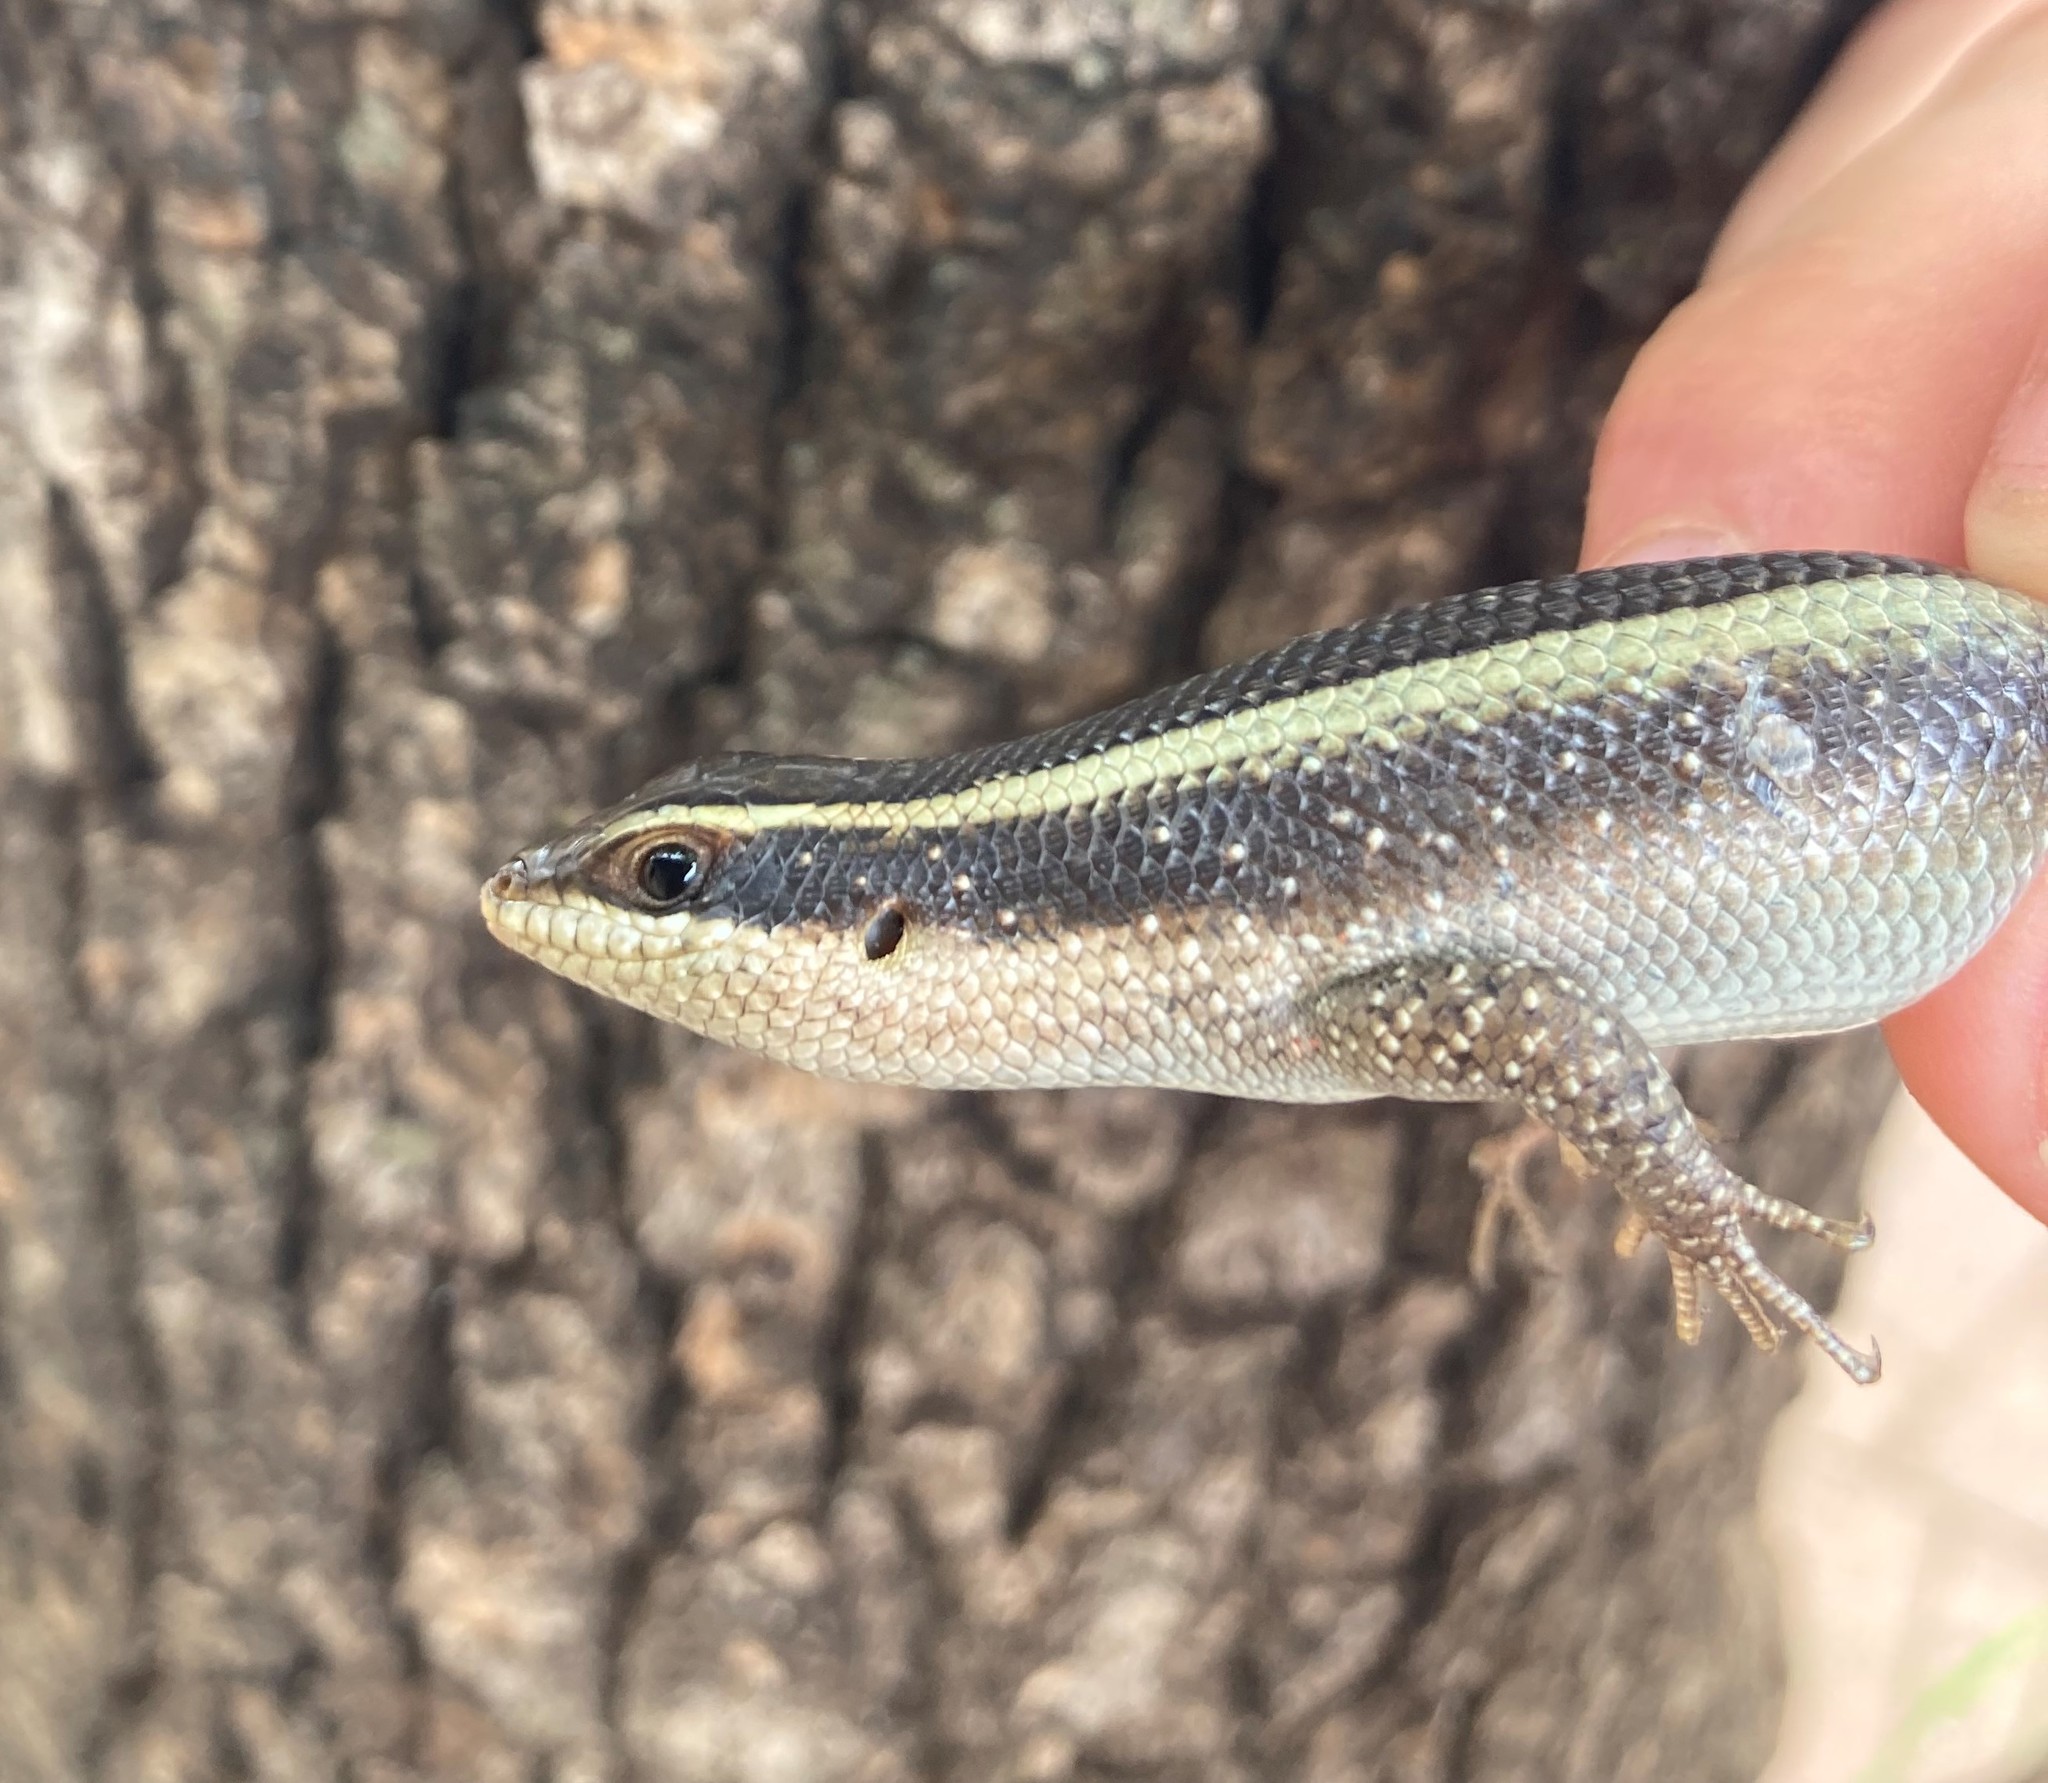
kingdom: Animalia
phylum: Chordata
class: Squamata
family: Scincidae
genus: Trachylepis
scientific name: Trachylepis striata
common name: African striped mabuya
